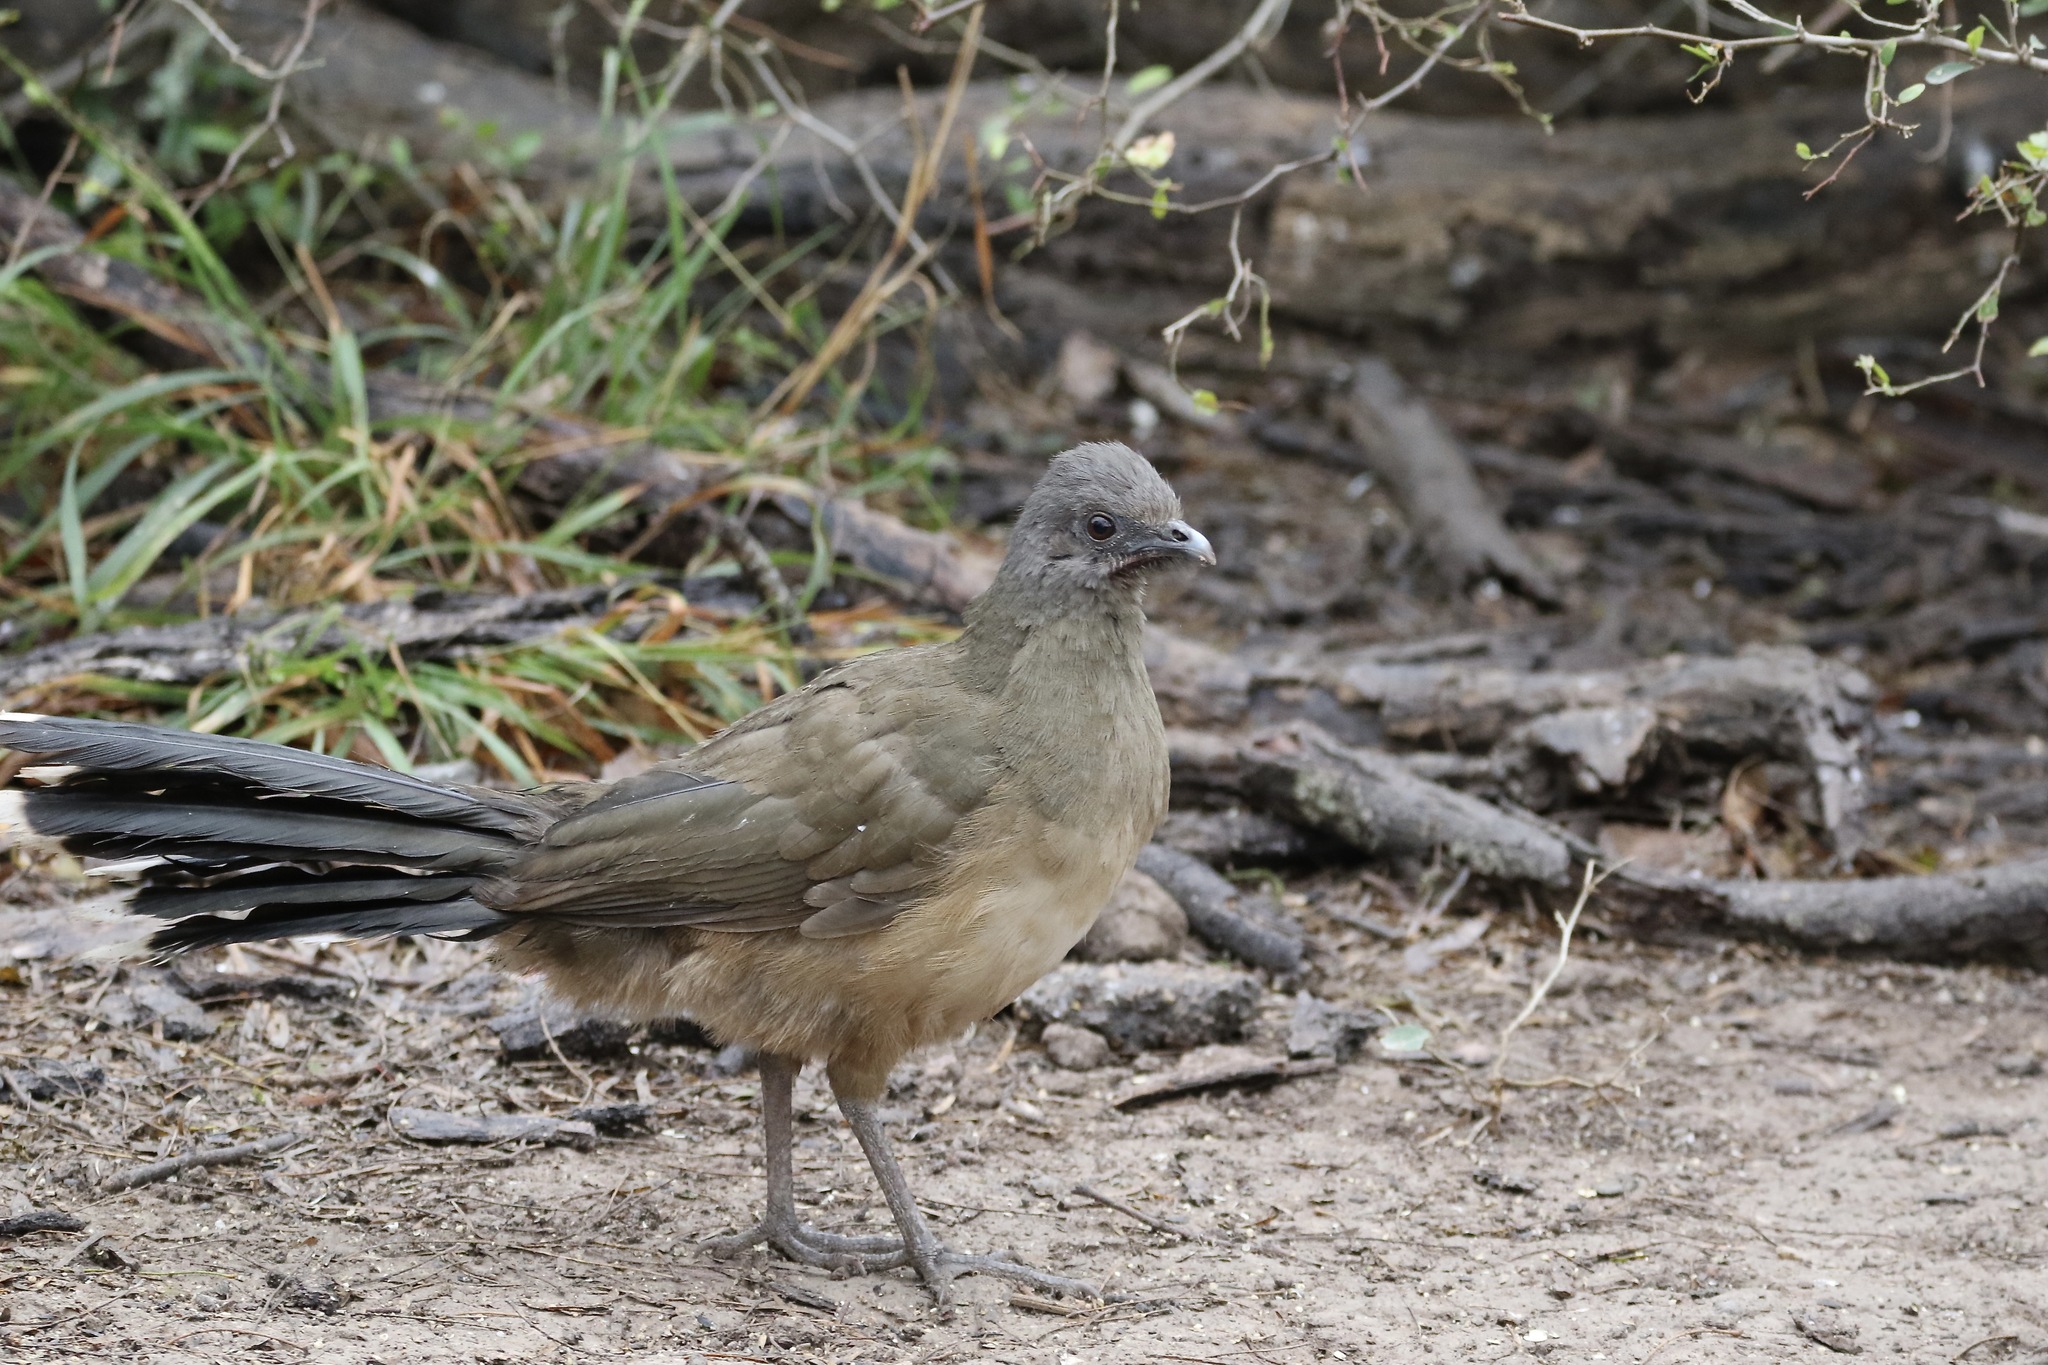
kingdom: Animalia
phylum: Chordata
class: Aves
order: Galliformes
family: Cracidae
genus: Ortalis
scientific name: Ortalis vetula
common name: Plain chachalaca
